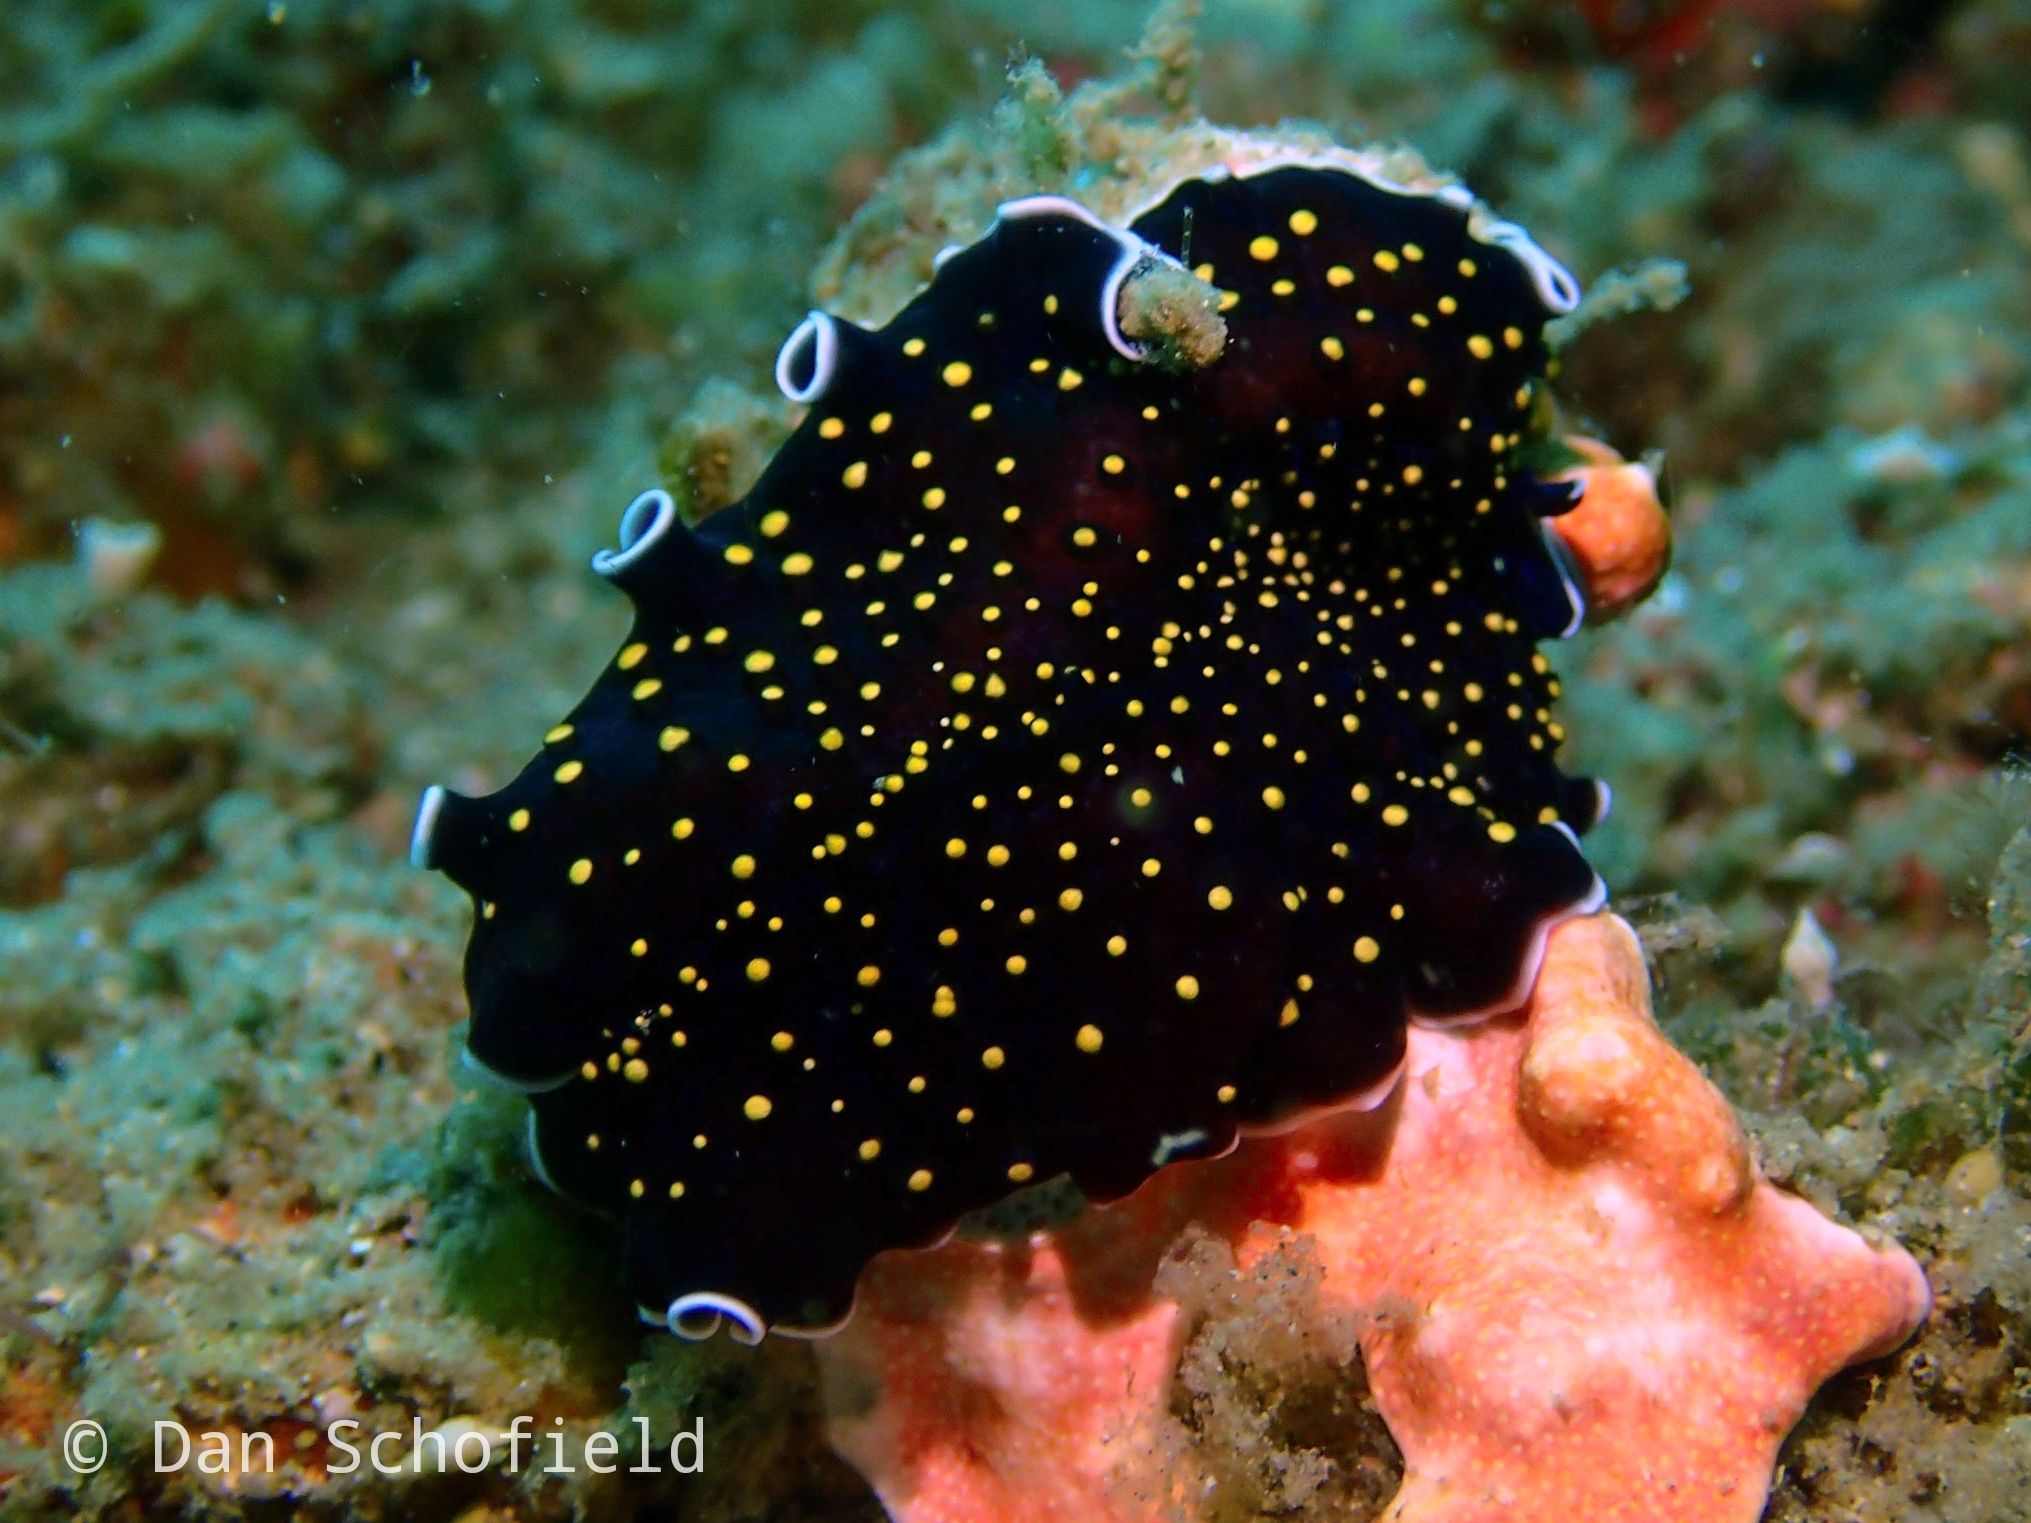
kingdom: Animalia
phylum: Platyhelminthes
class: Turbellaria
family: Pseudocerotidae
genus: Thysanozoon
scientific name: Thysanozoon nigropapillosum
